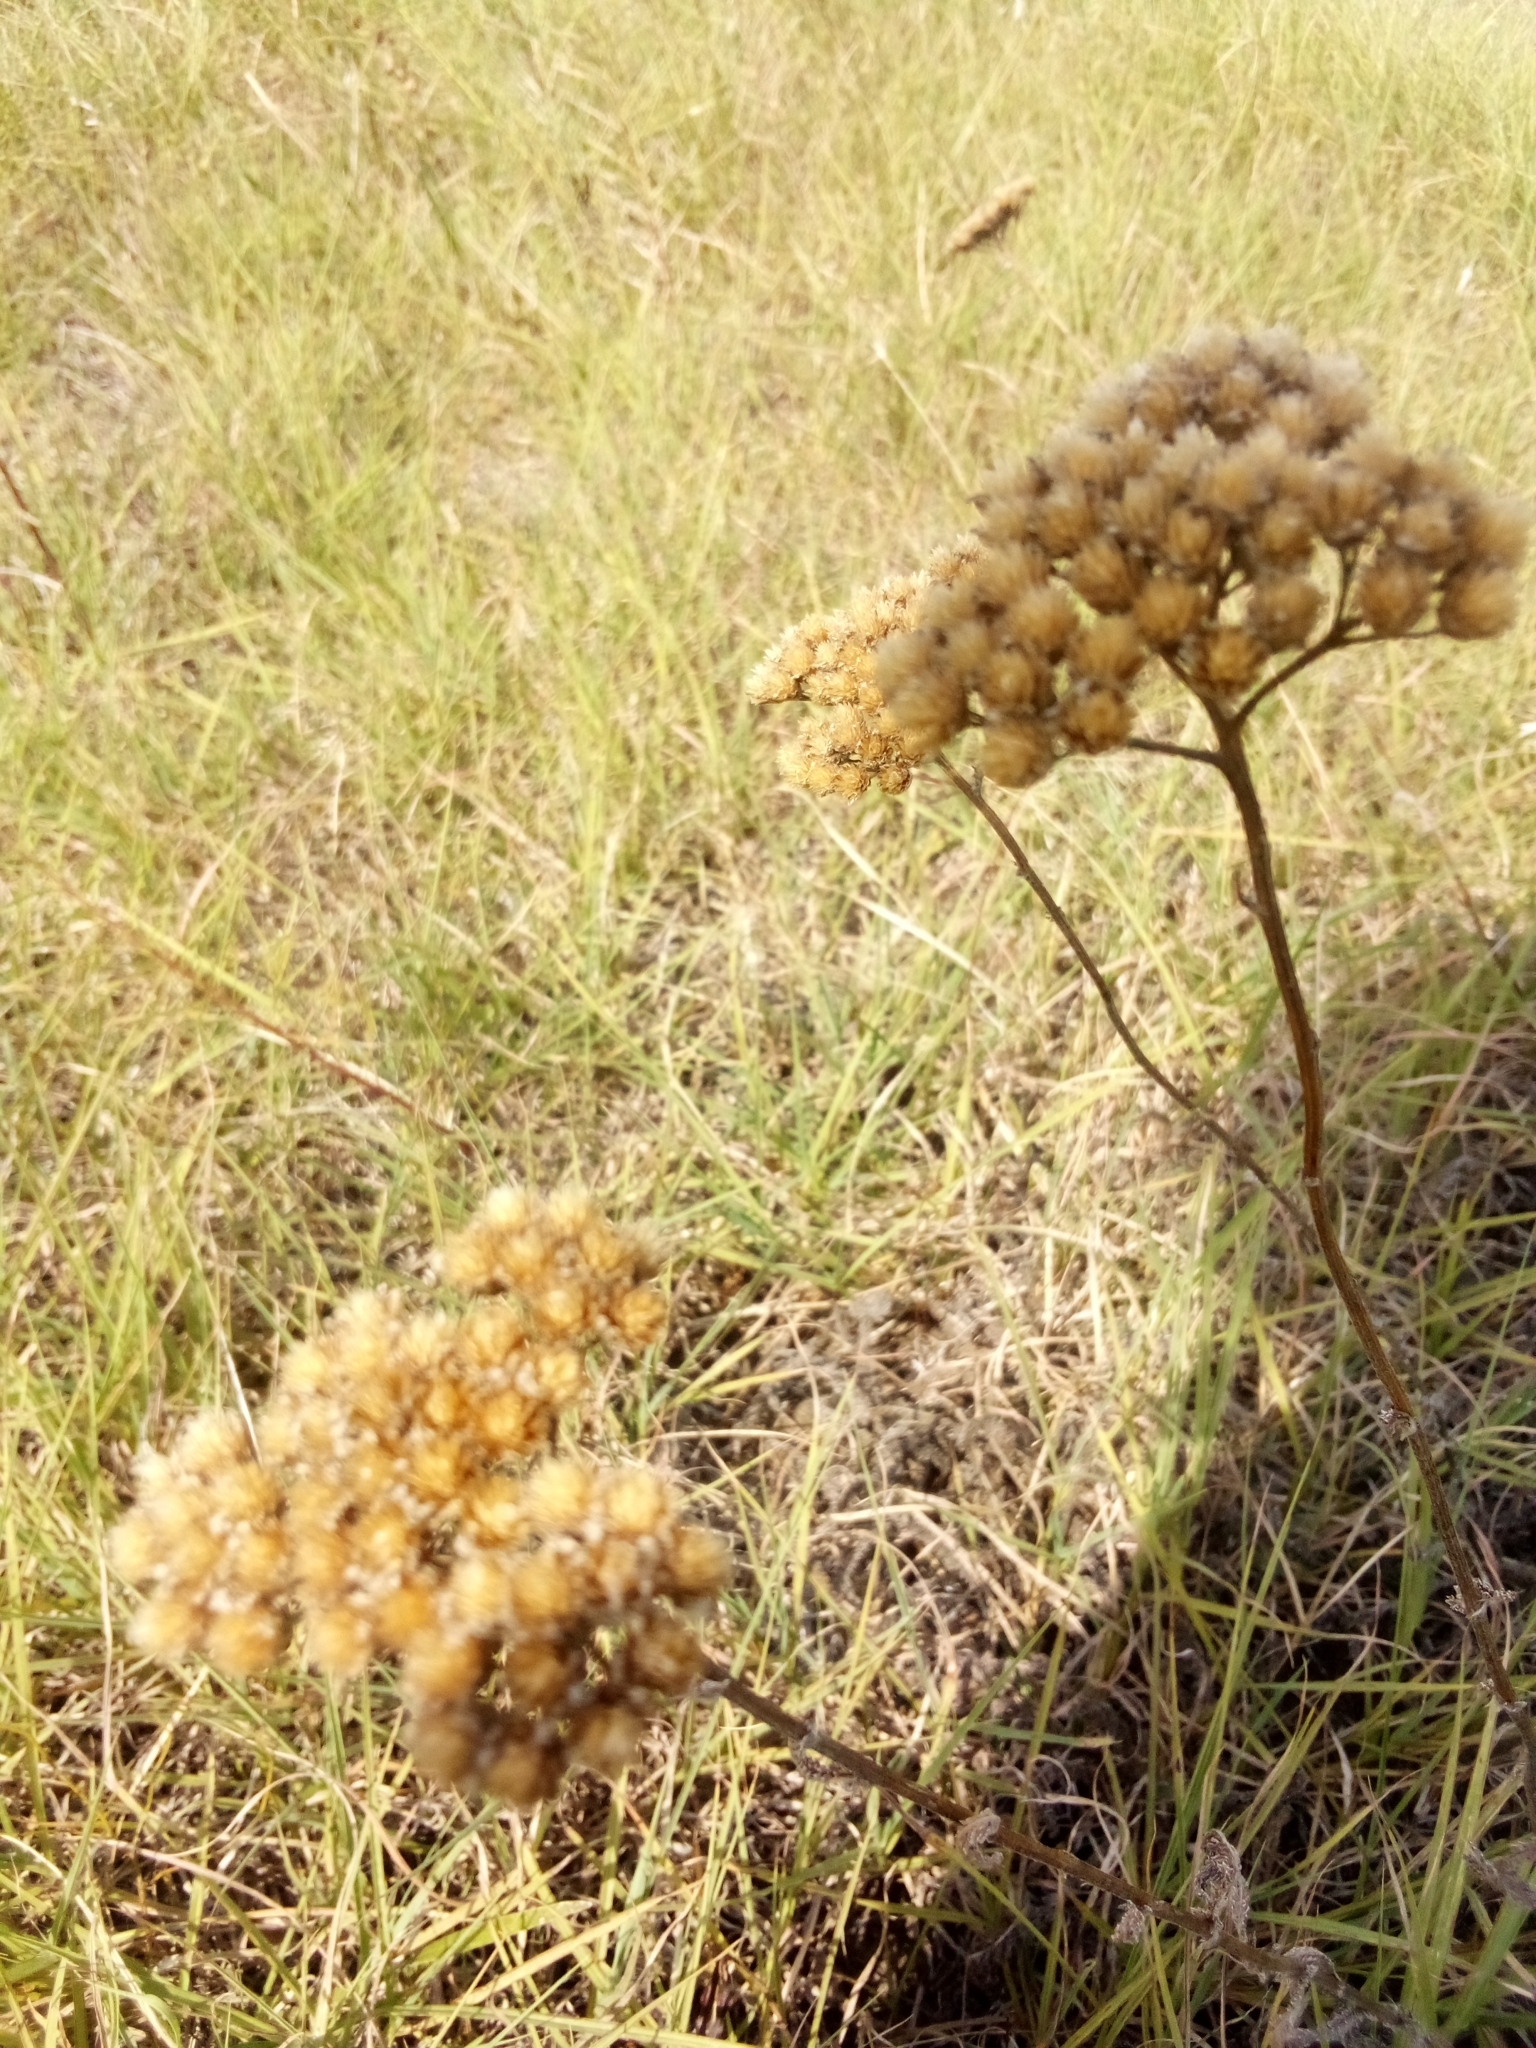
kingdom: Plantae
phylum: Tracheophyta
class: Magnoliopsida
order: Asterales
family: Asteraceae
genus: Achillea
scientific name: Achillea millefolium
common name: Yarrow
